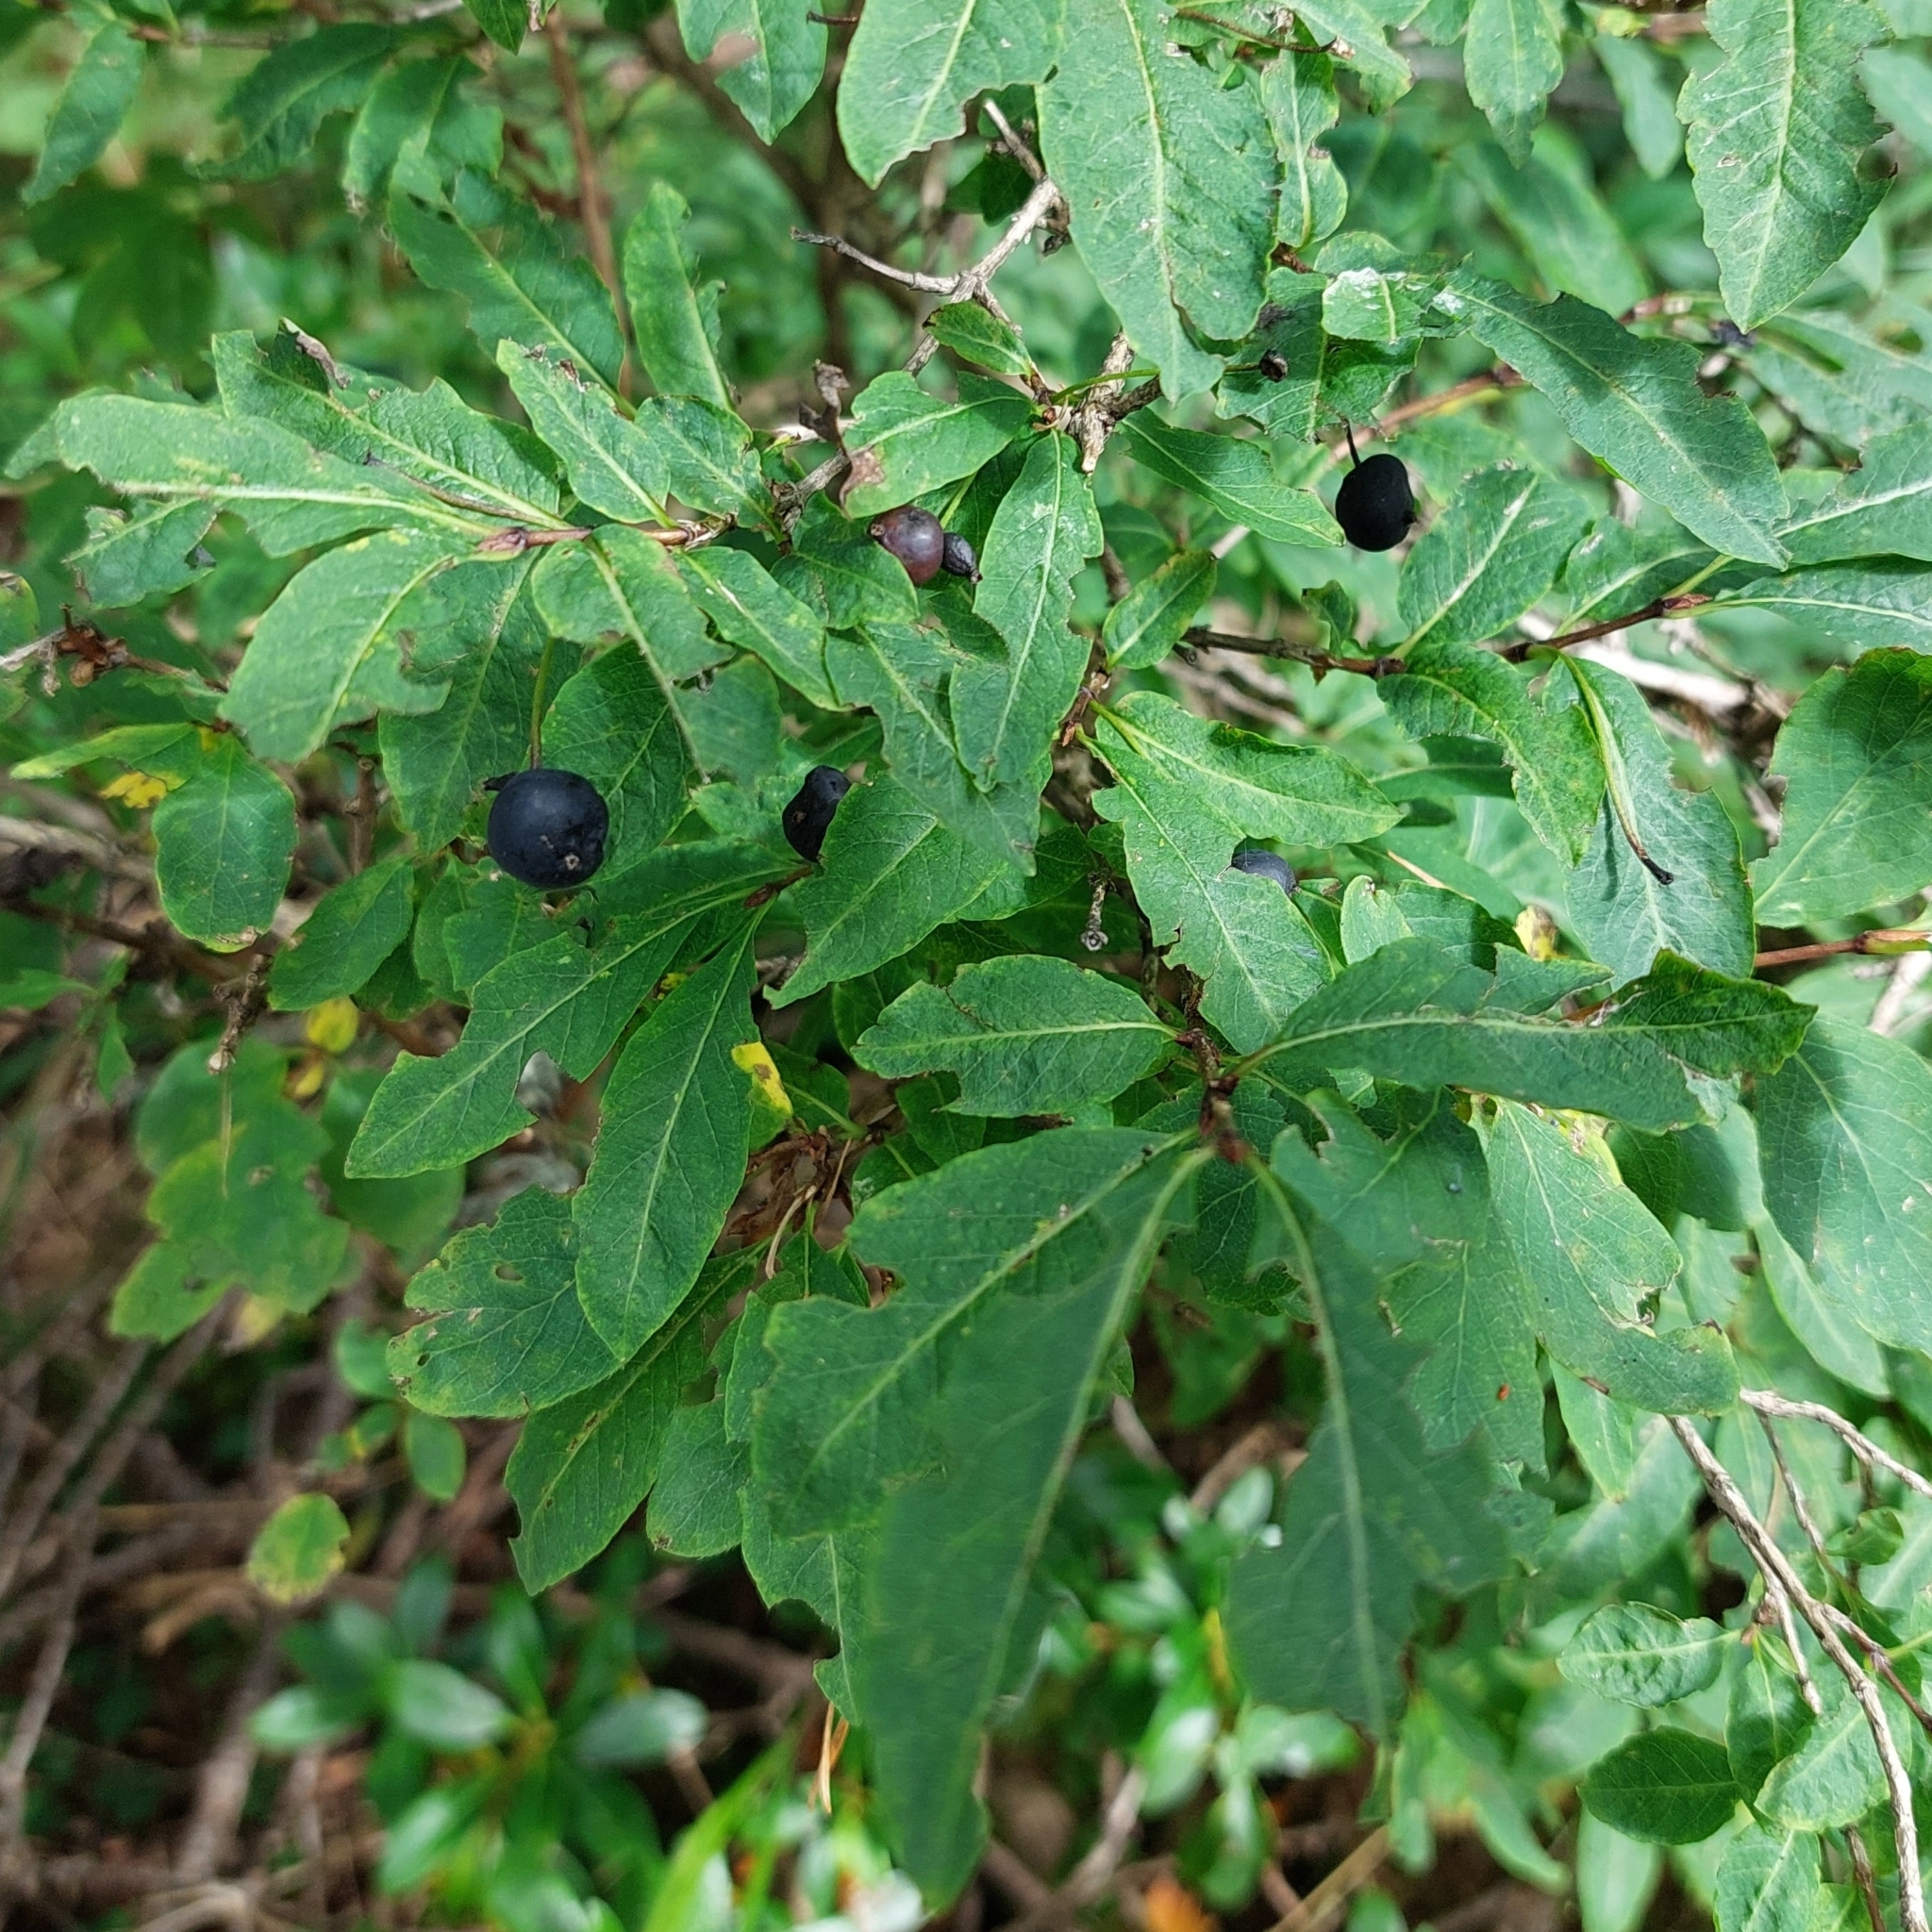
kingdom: Plantae
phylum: Tracheophyta
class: Magnoliopsida
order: Dipsacales
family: Caprifoliaceae
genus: Lonicera
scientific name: Lonicera nigra
